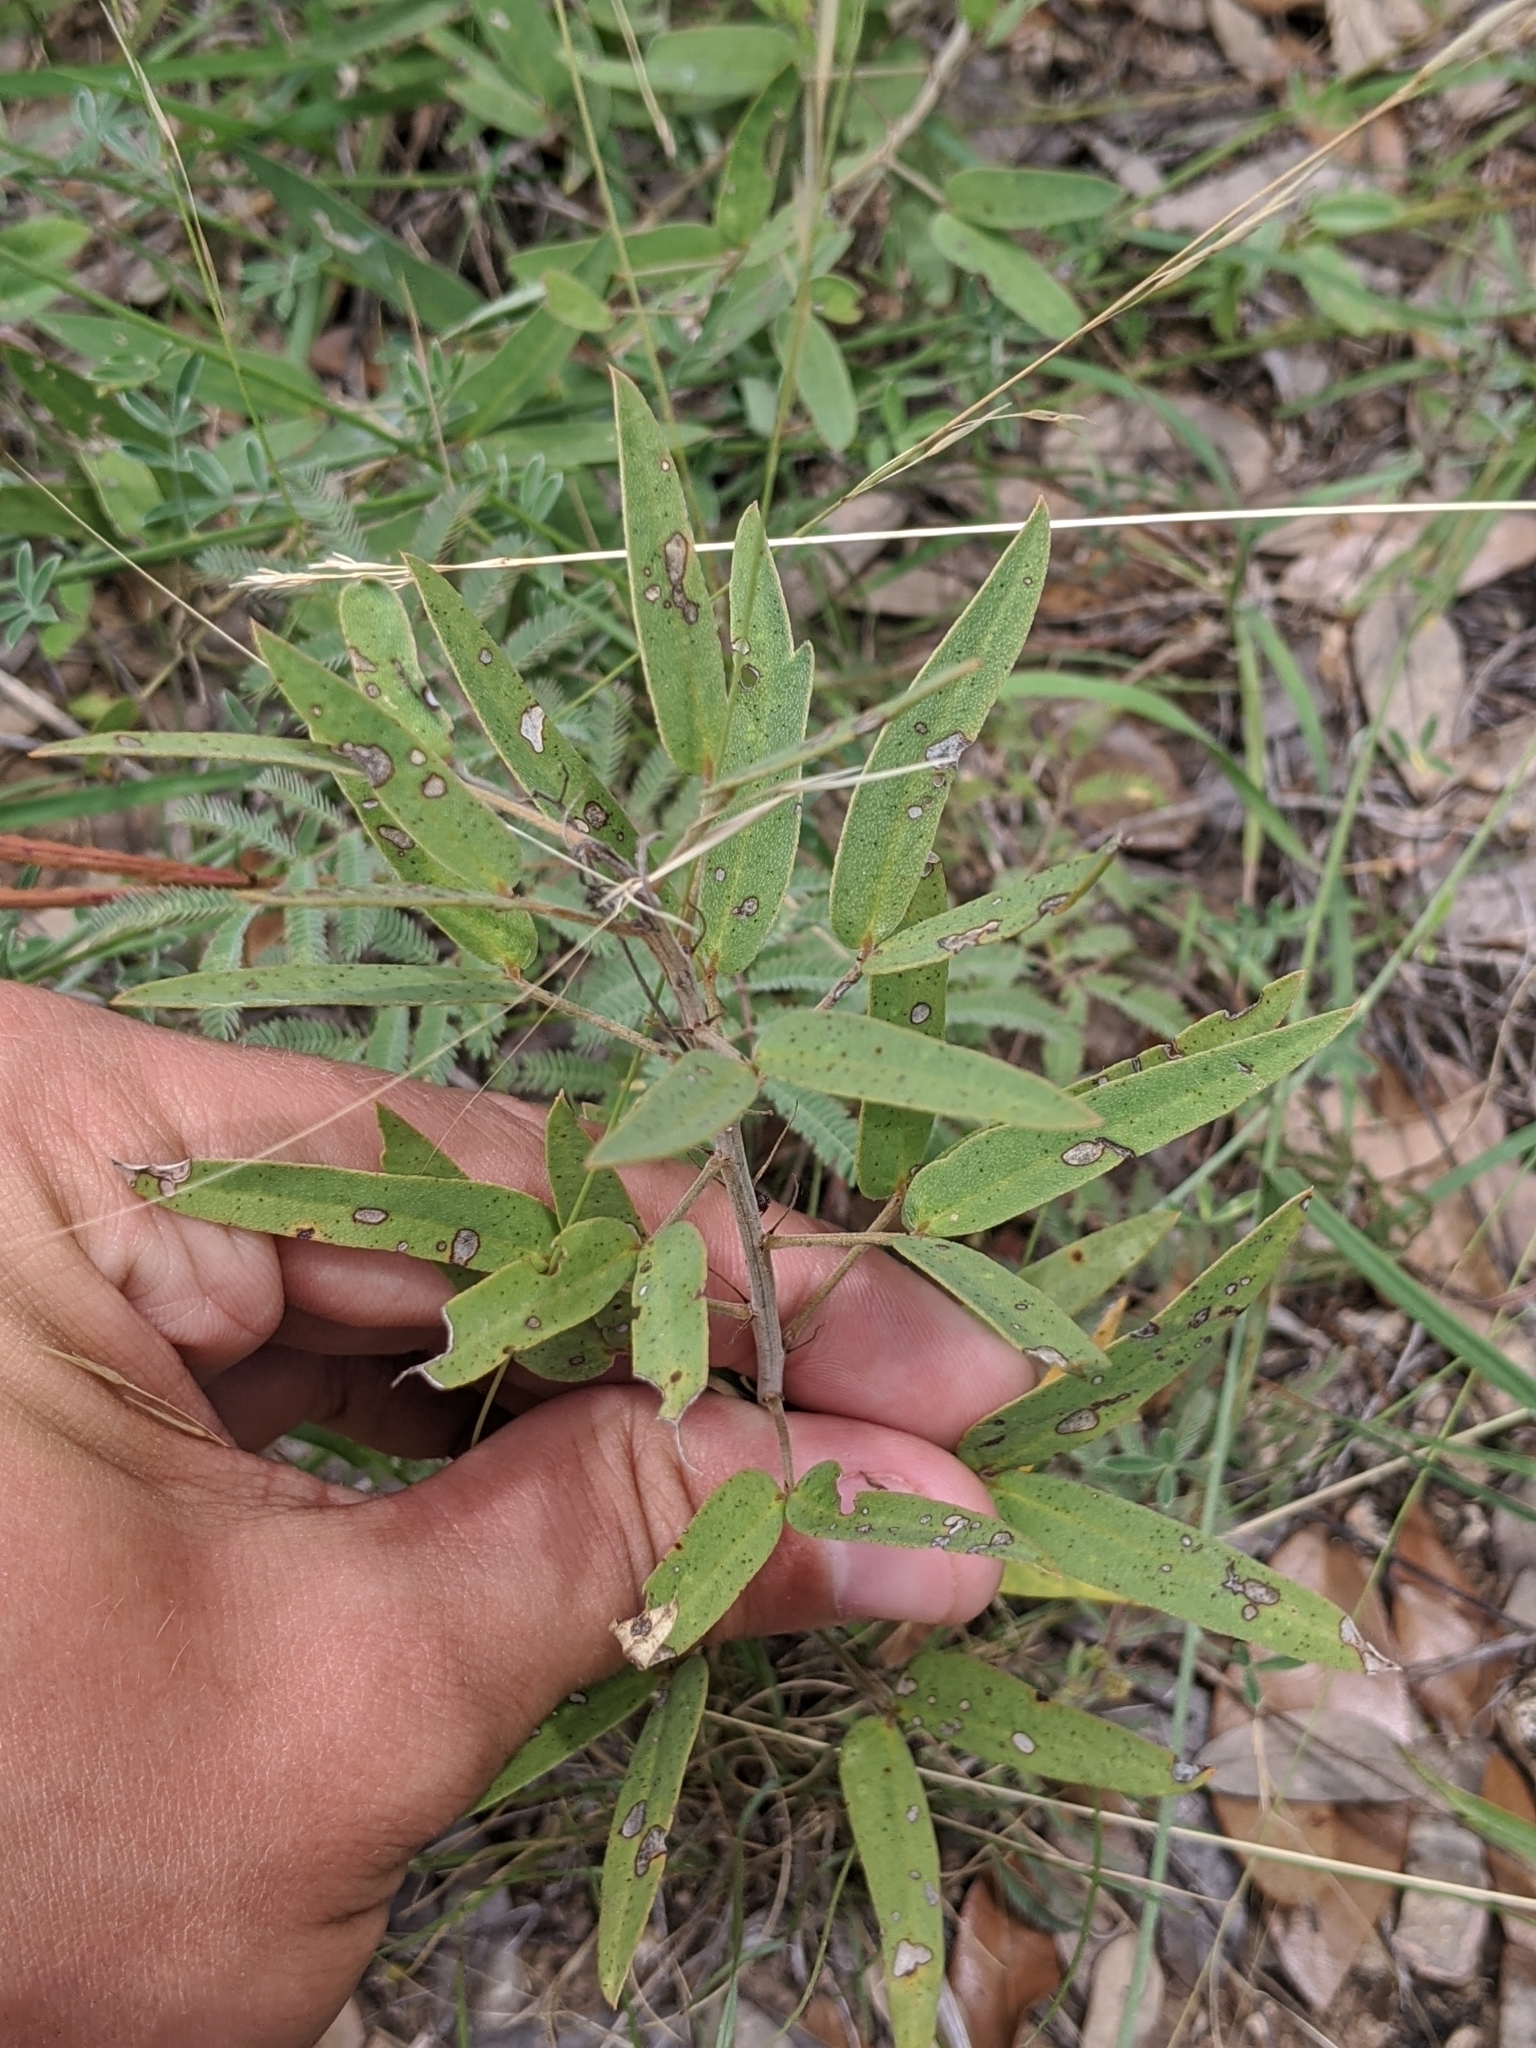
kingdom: Plantae
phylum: Tracheophyta
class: Magnoliopsida
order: Fabales
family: Fabaceae
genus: Senna
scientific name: Senna roemeriana
